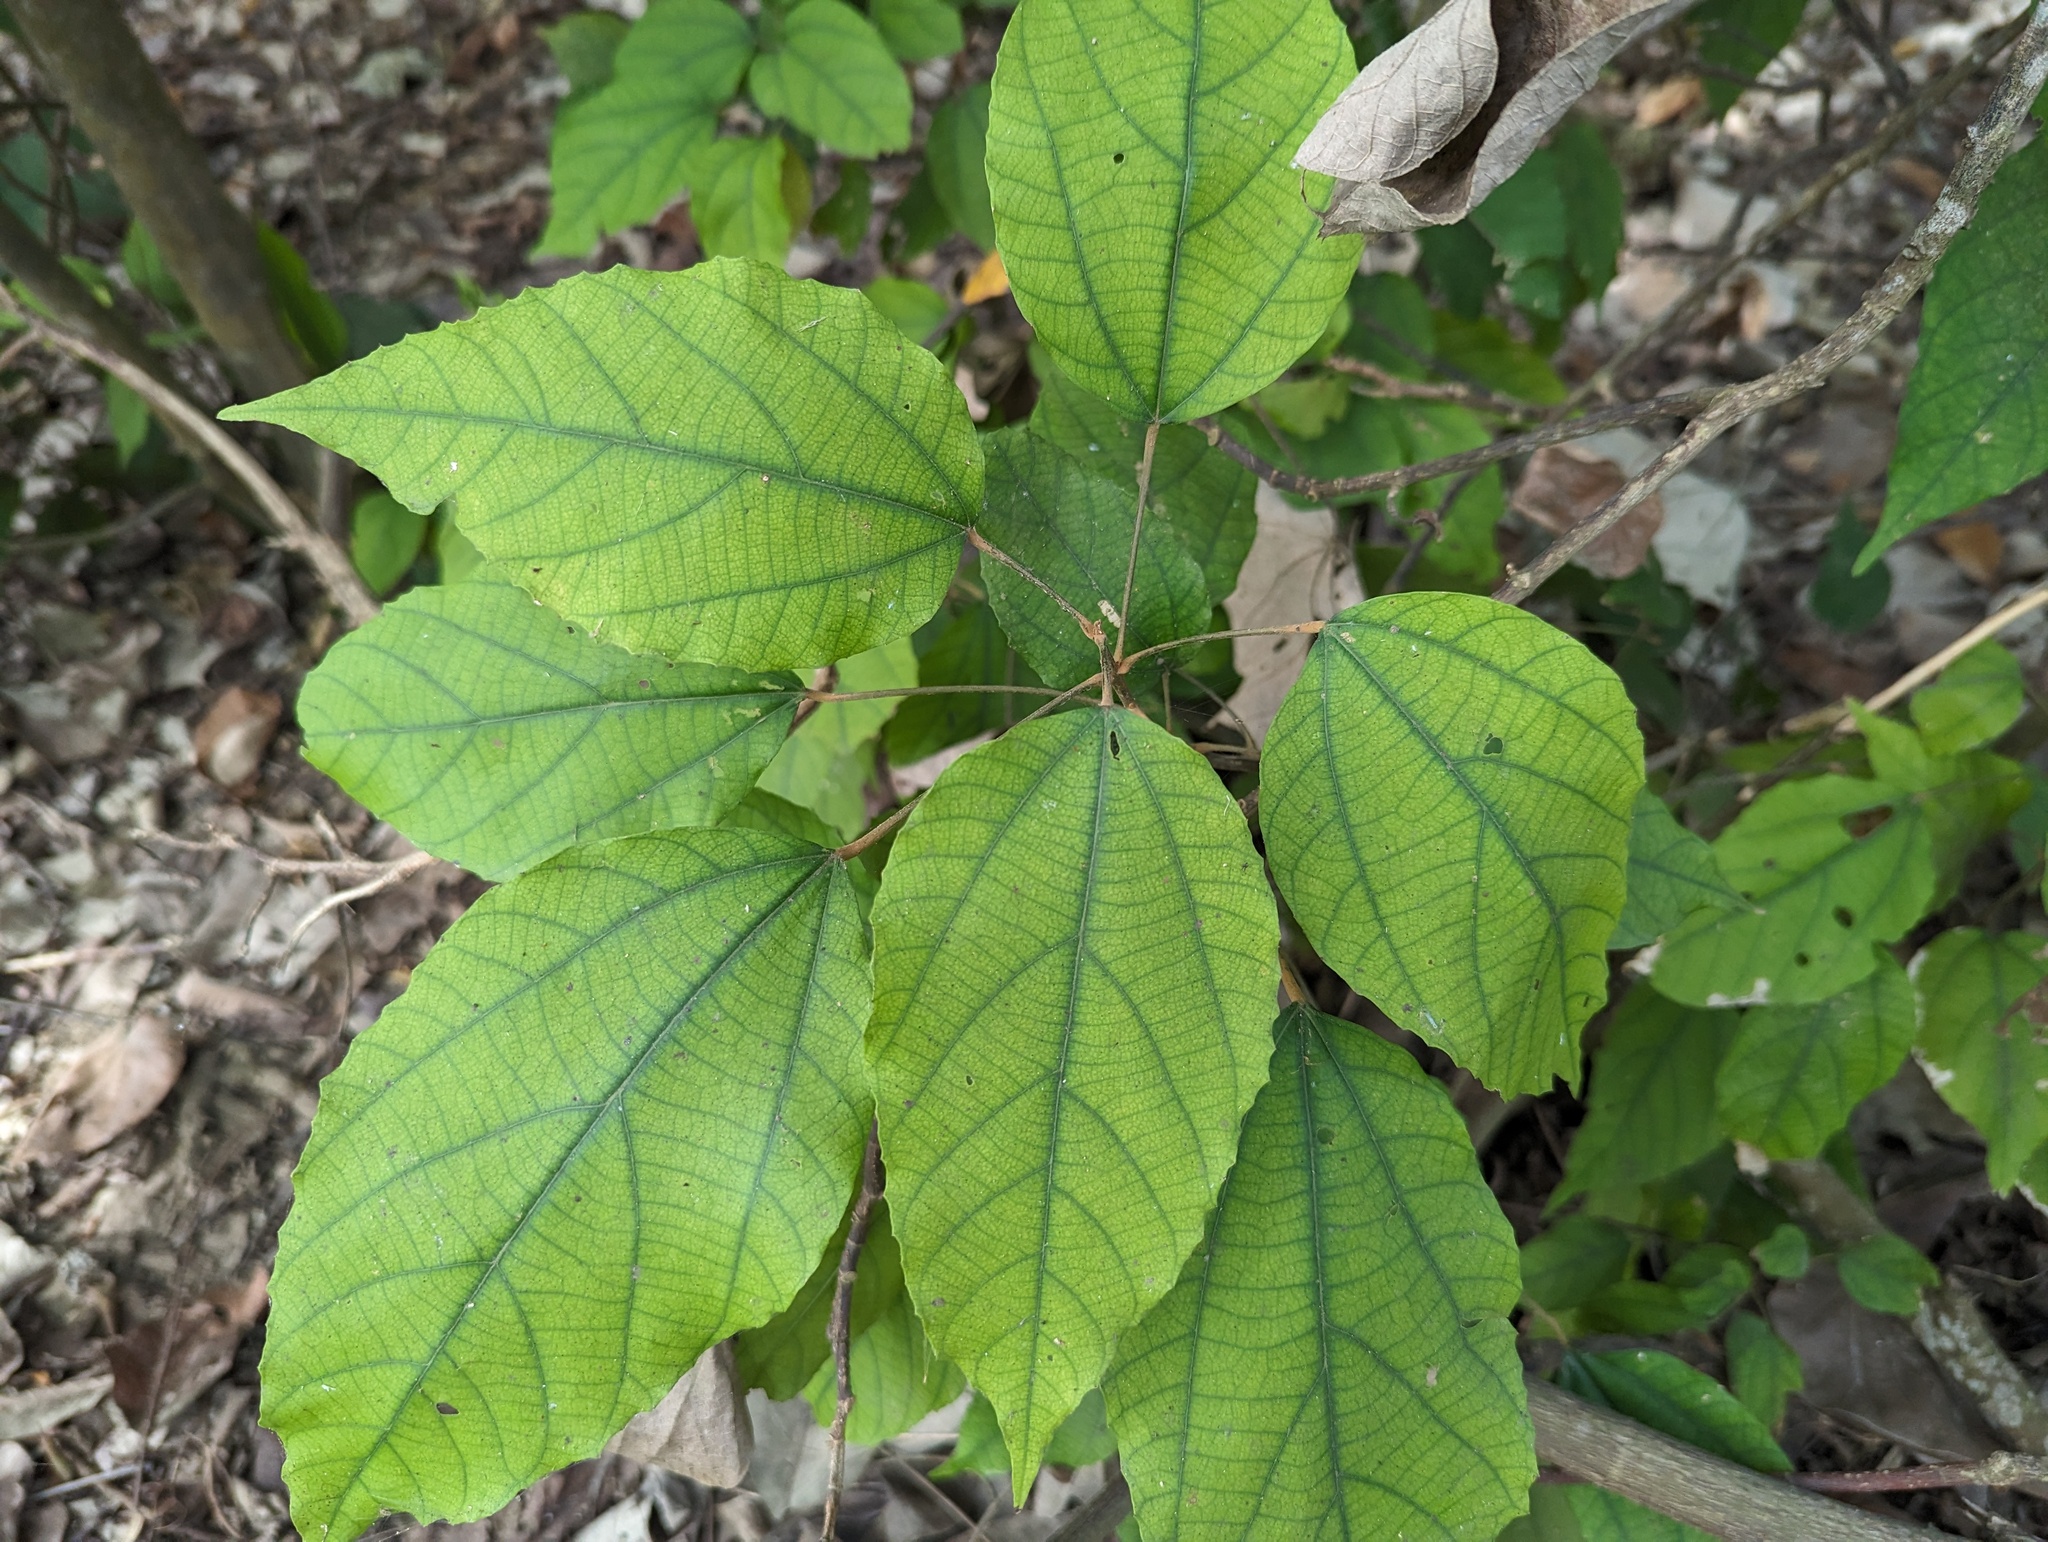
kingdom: Plantae
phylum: Tracheophyta
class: Magnoliopsida
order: Malpighiales
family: Euphorbiaceae
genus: Mallotus
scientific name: Mallotus philippensis
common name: Kamala tree
